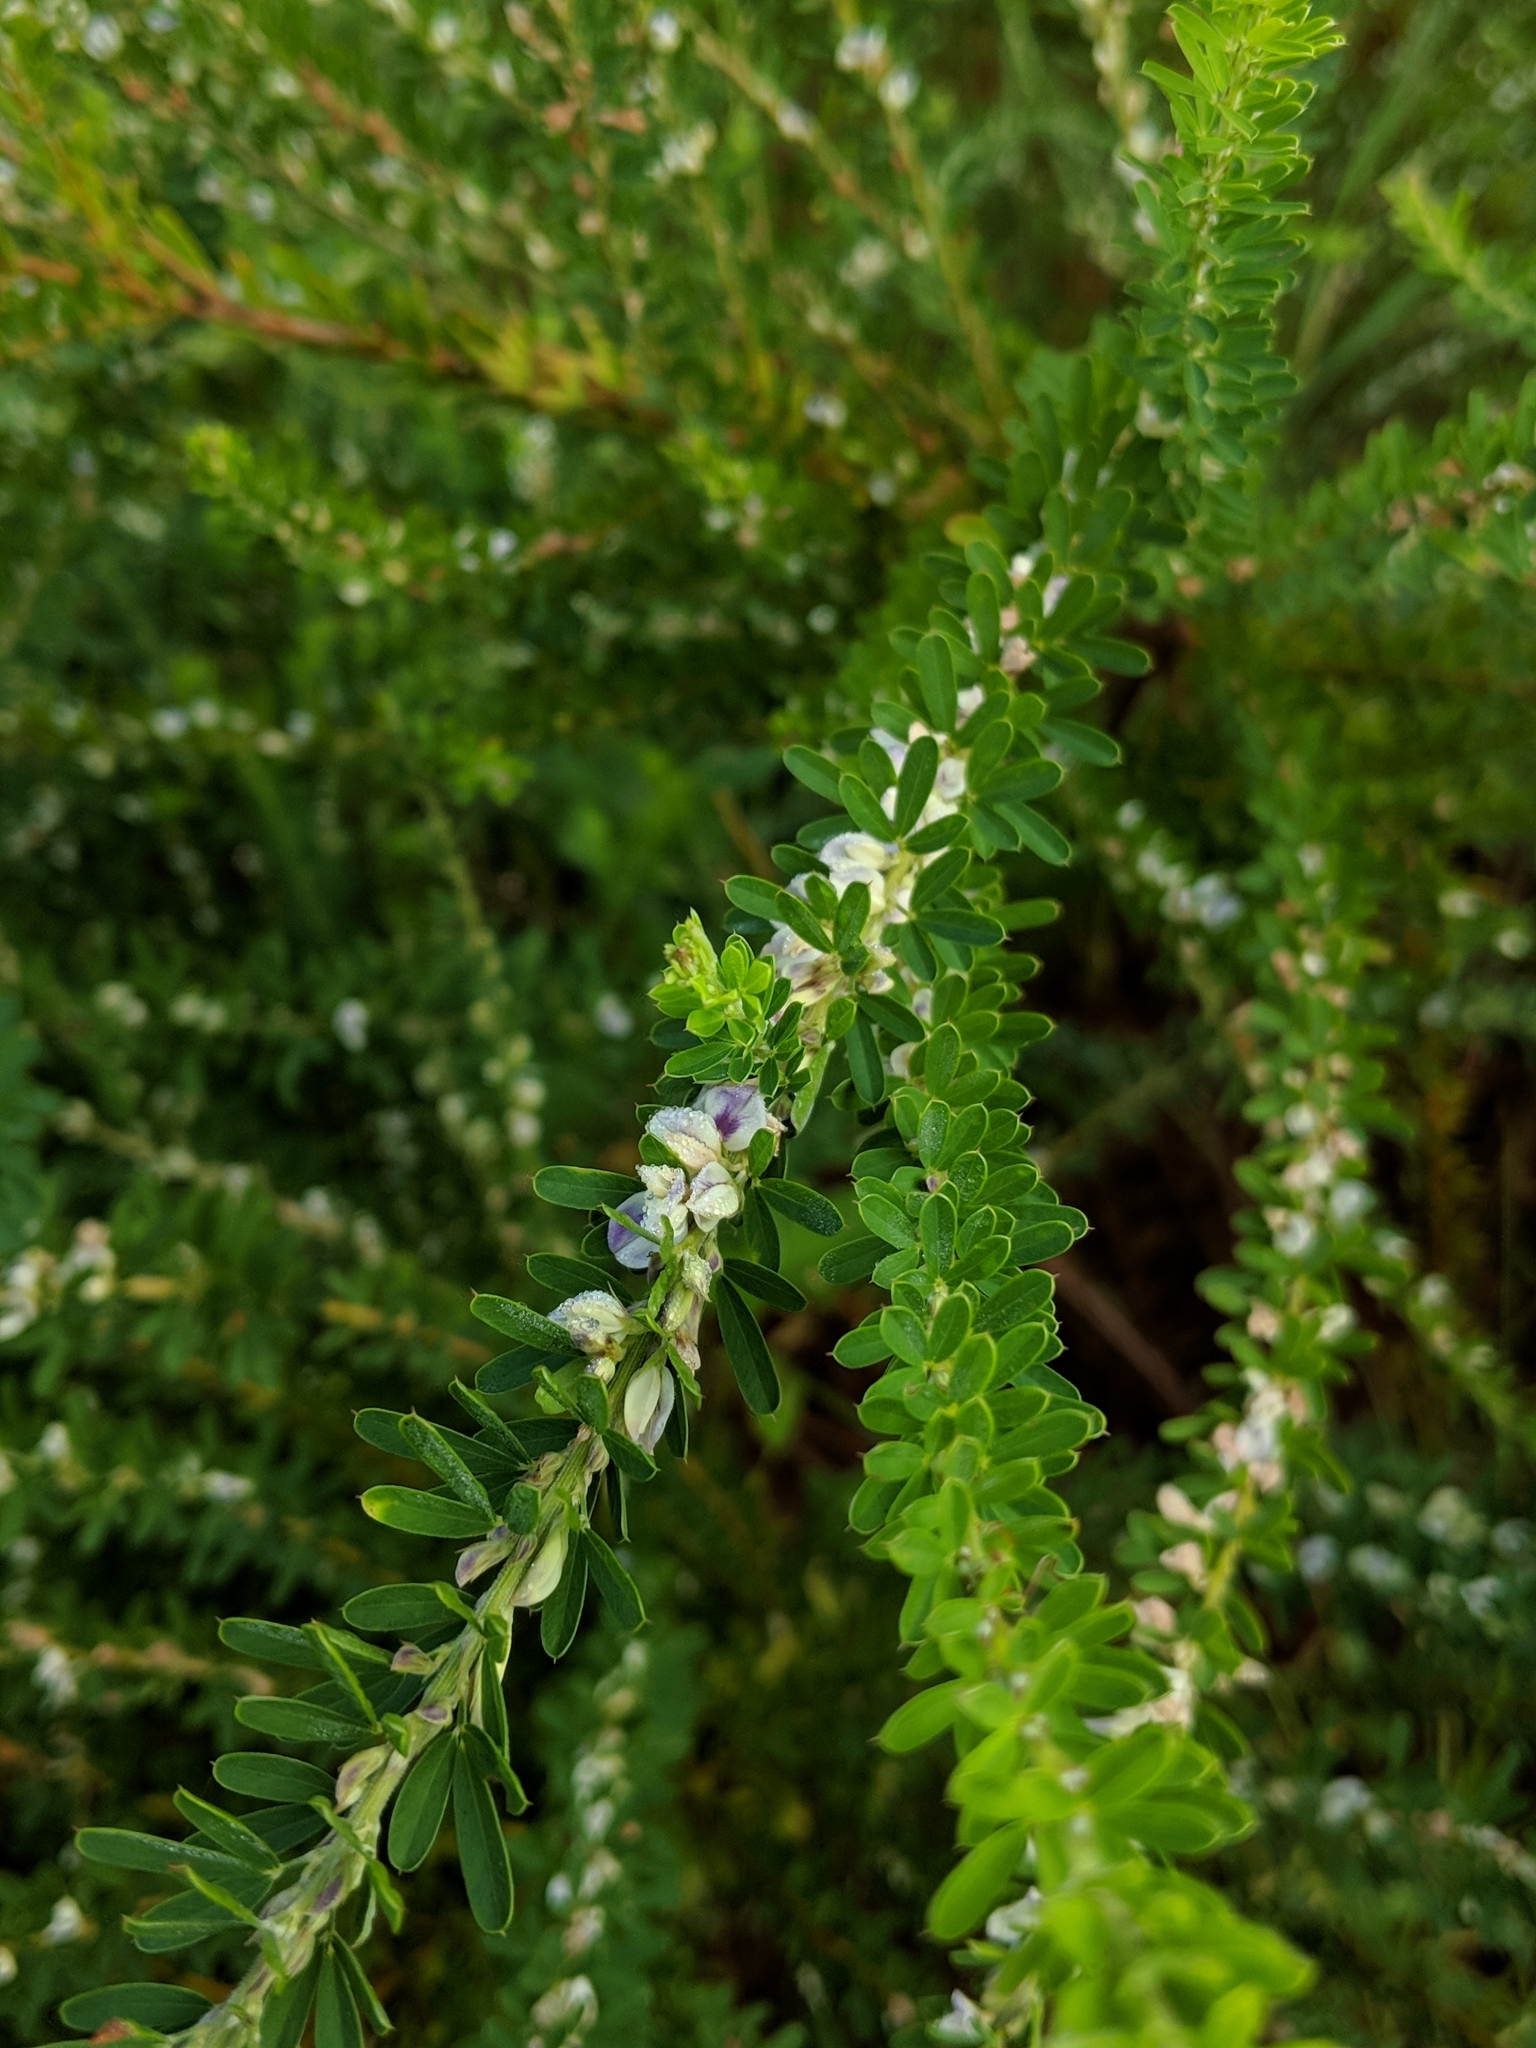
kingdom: Plantae
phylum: Tracheophyta
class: Magnoliopsida
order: Fabales
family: Fabaceae
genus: Lespedeza
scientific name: Lespedeza cuneata
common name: Chinese bush-clover
